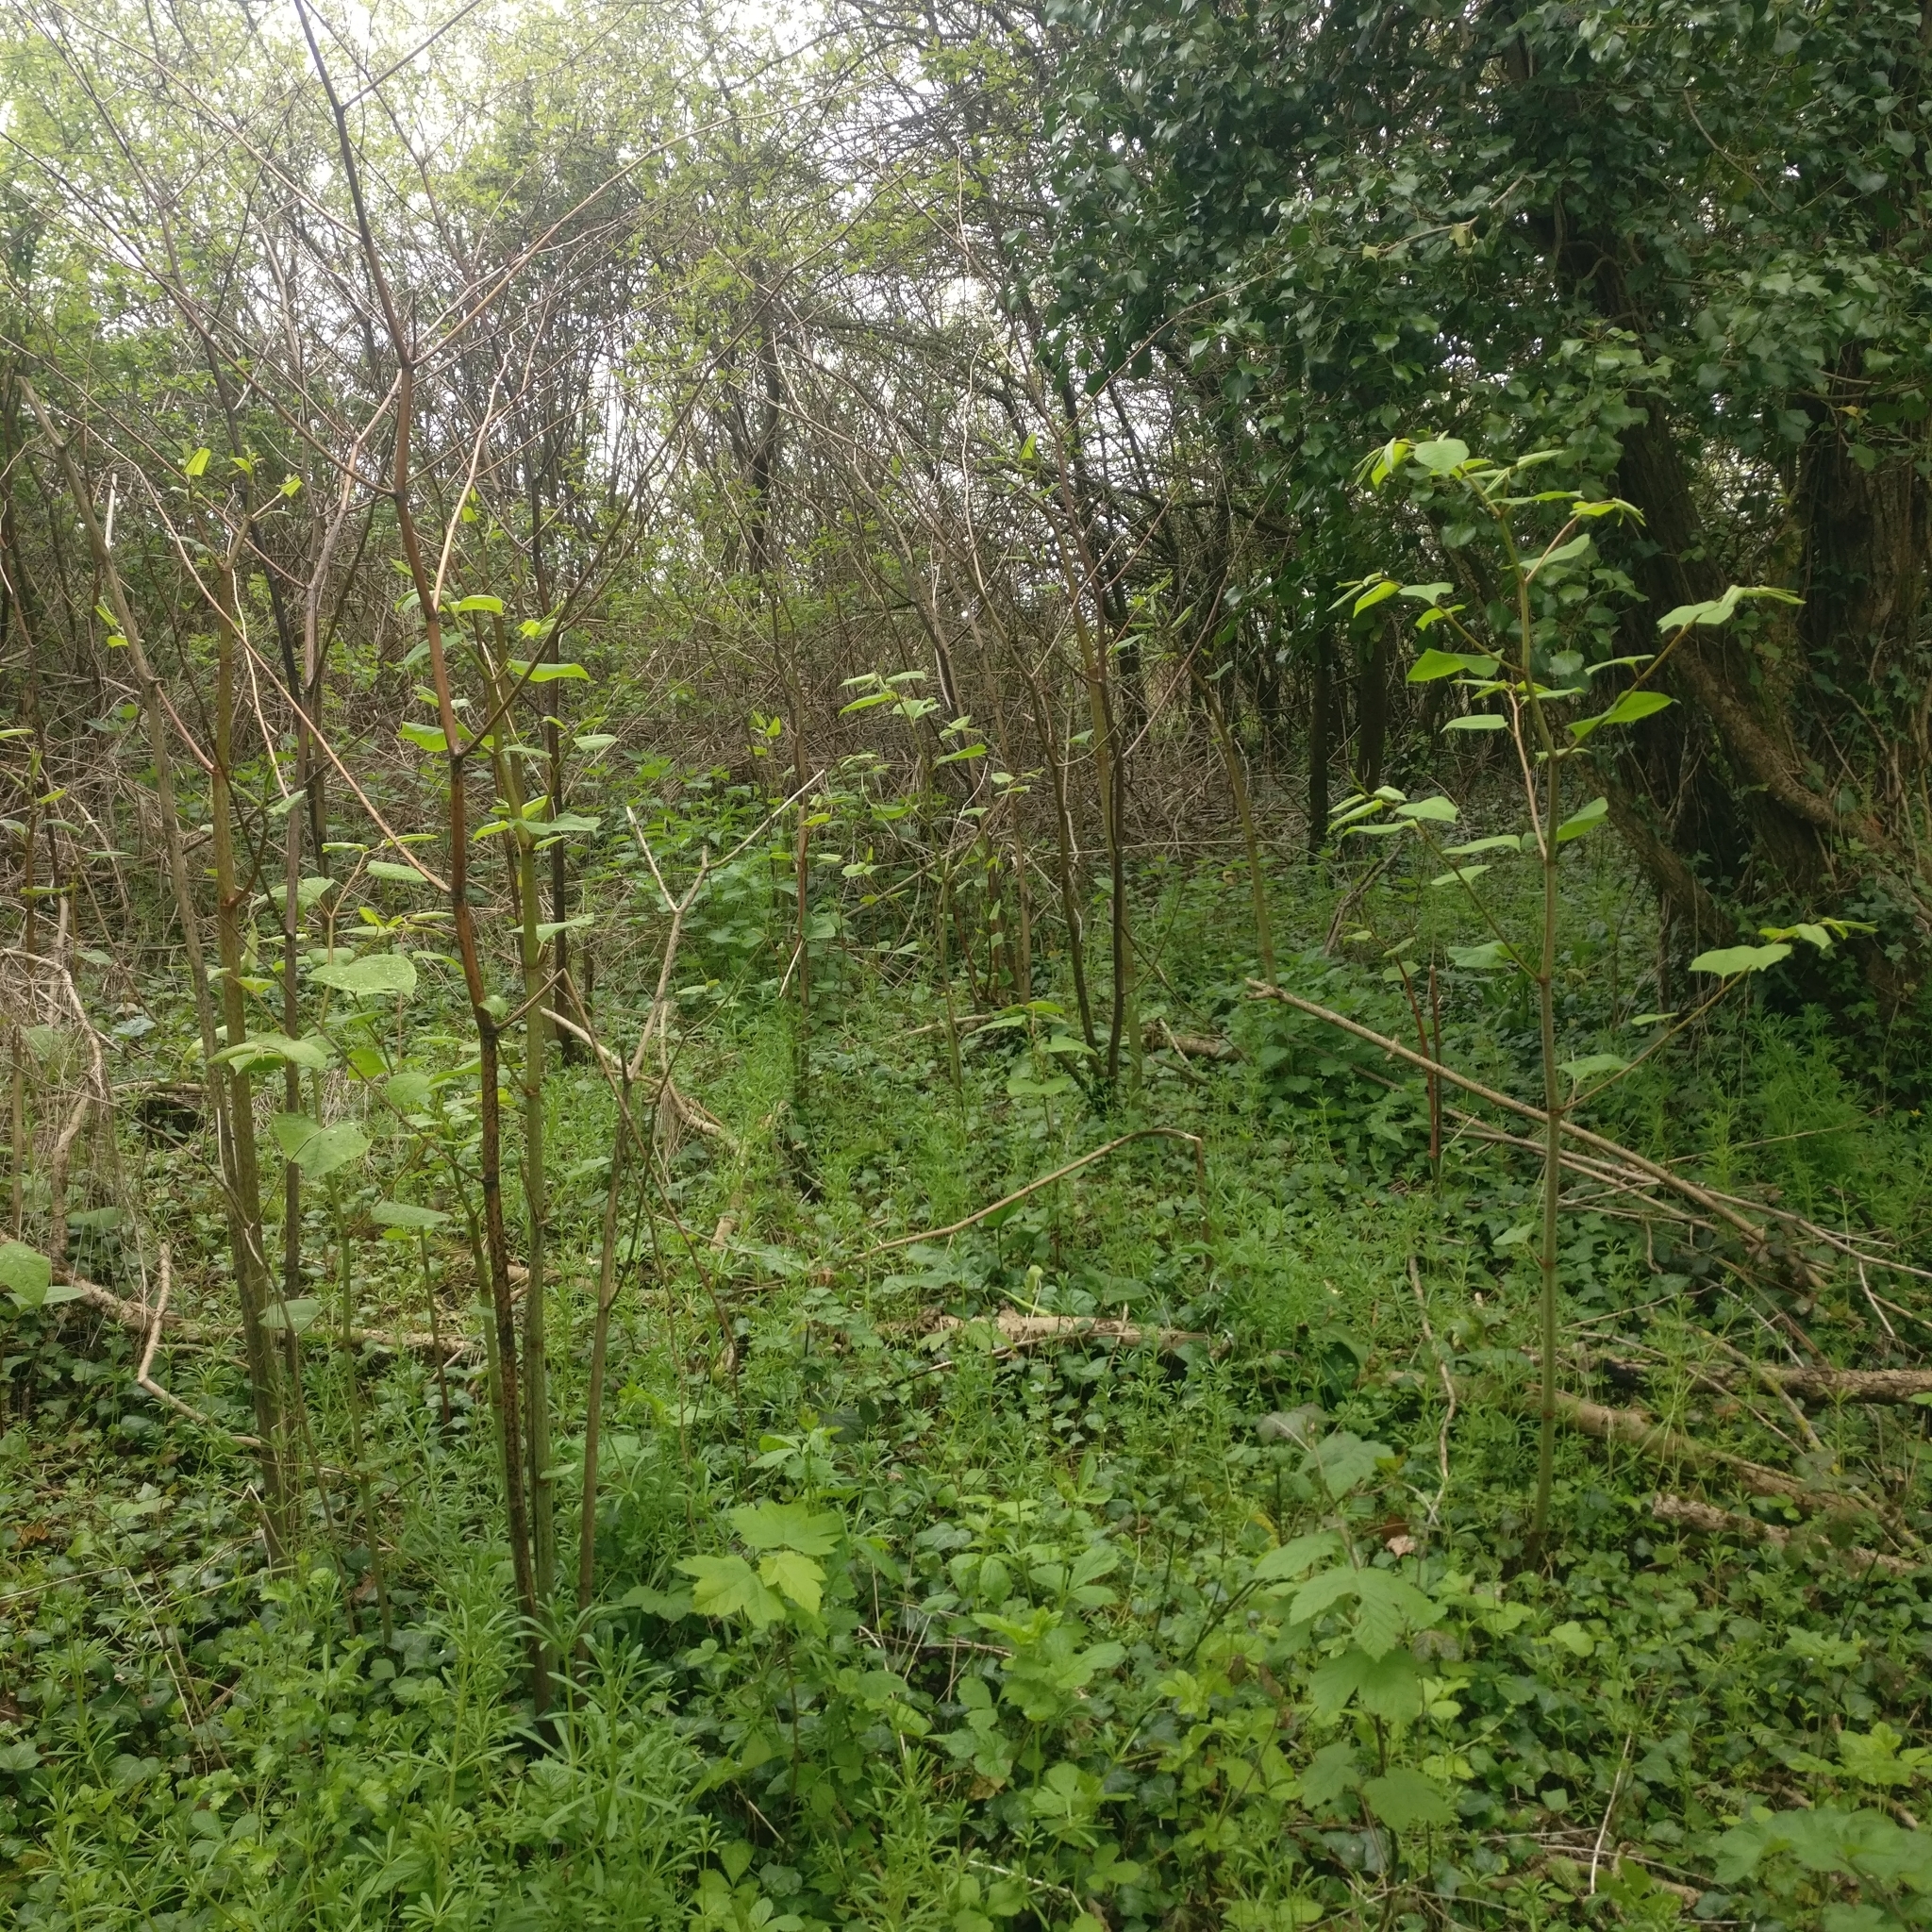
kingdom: Plantae
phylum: Tracheophyta
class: Magnoliopsida
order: Caryophyllales
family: Polygonaceae
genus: Reynoutria
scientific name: Reynoutria japonica
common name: Japanese knotweed
